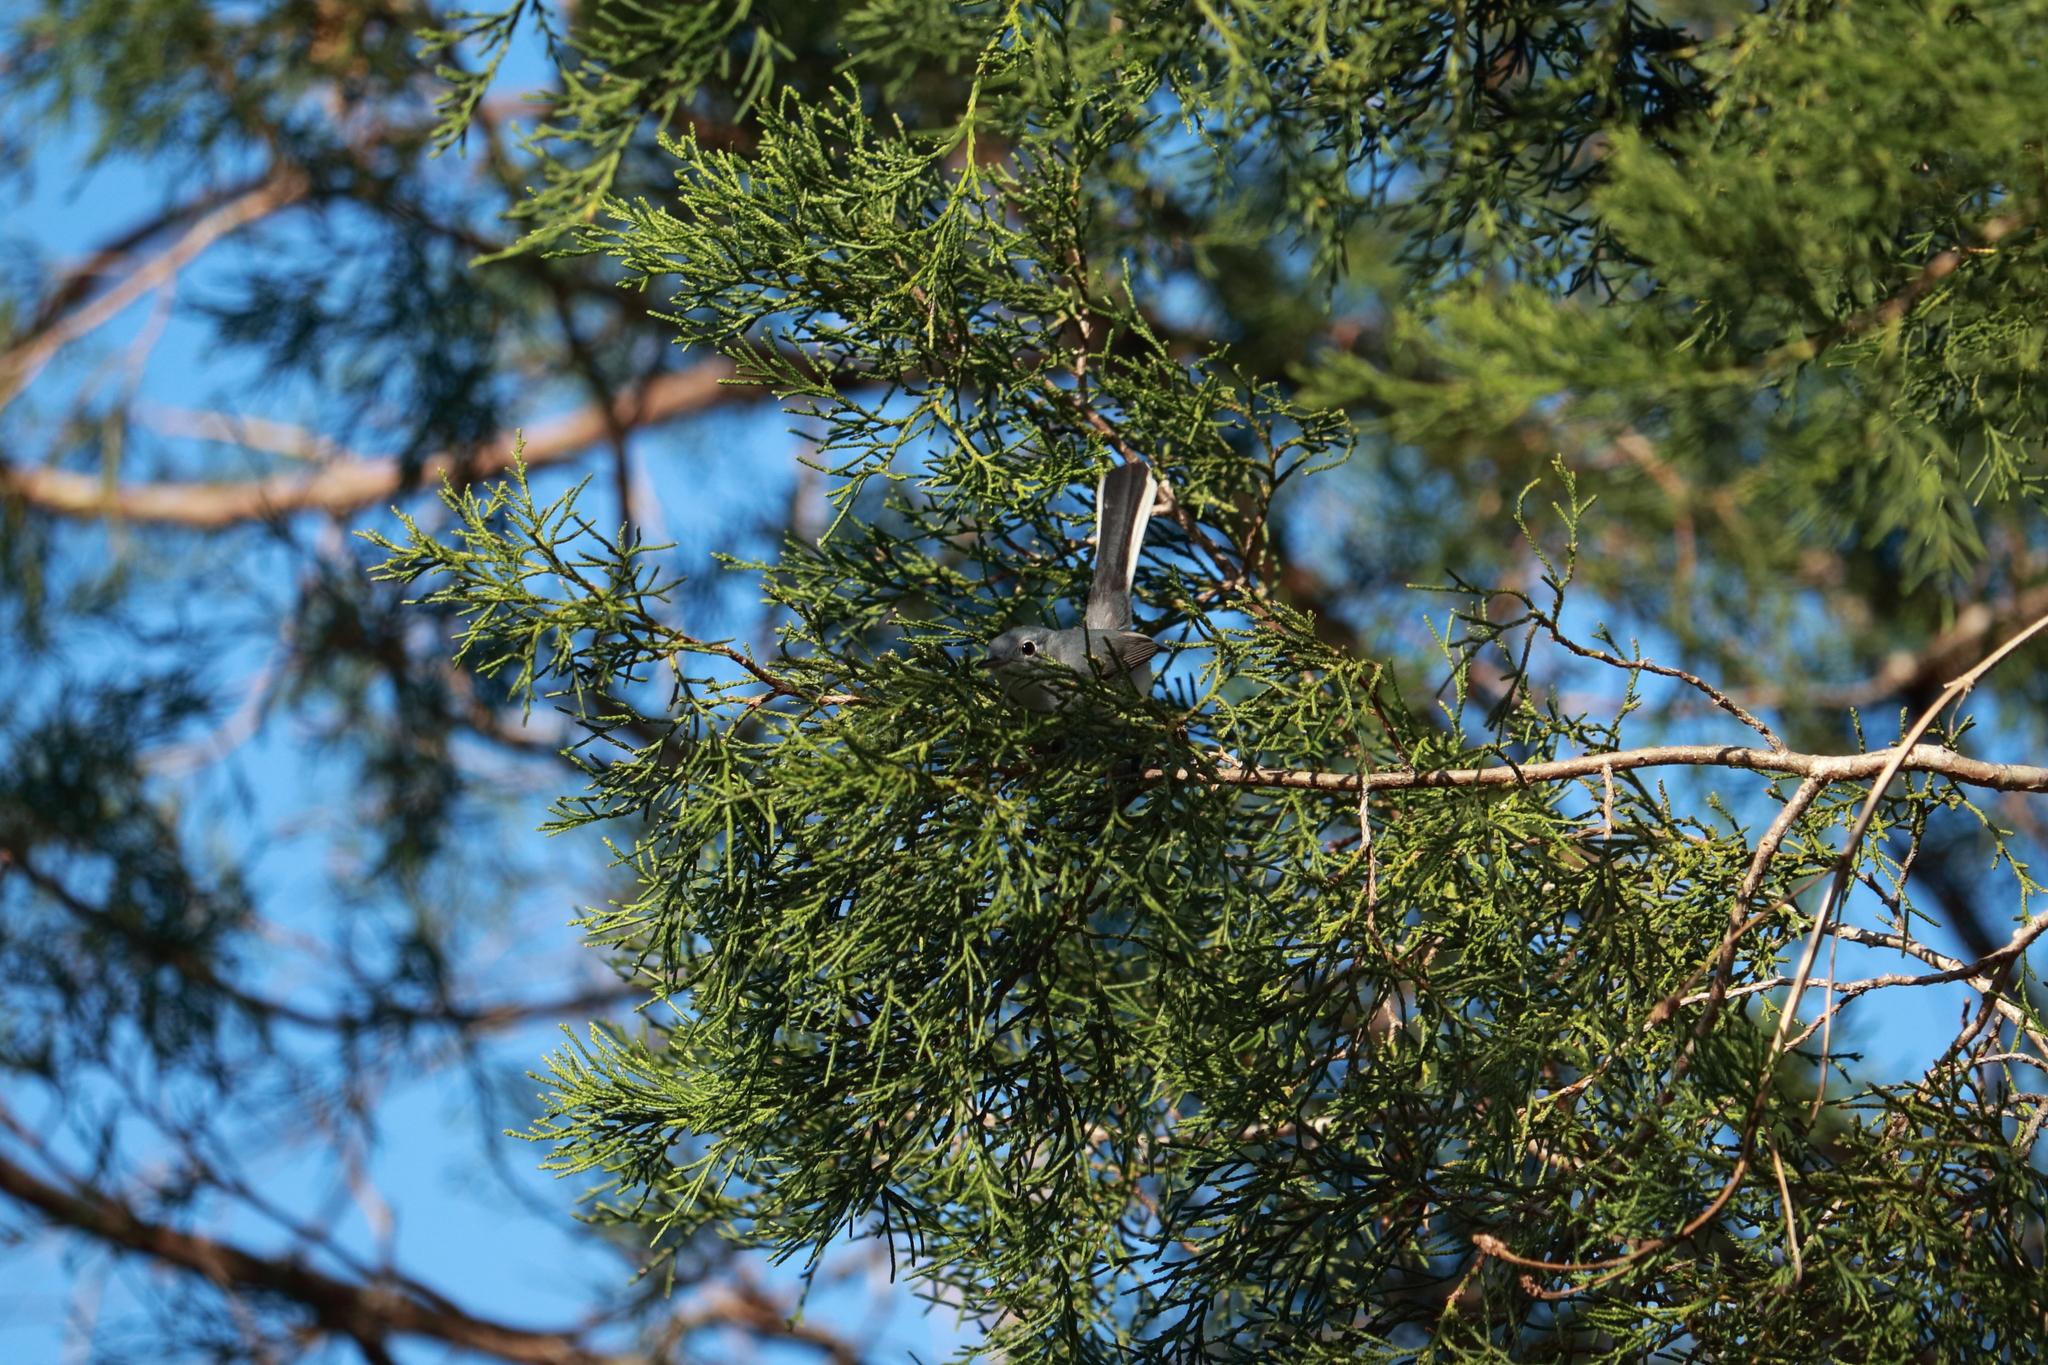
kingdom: Animalia
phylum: Chordata
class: Aves
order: Passeriformes
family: Polioptilidae
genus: Polioptila
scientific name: Polioptila caerulea
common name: Blue-gray gnatcatcher
